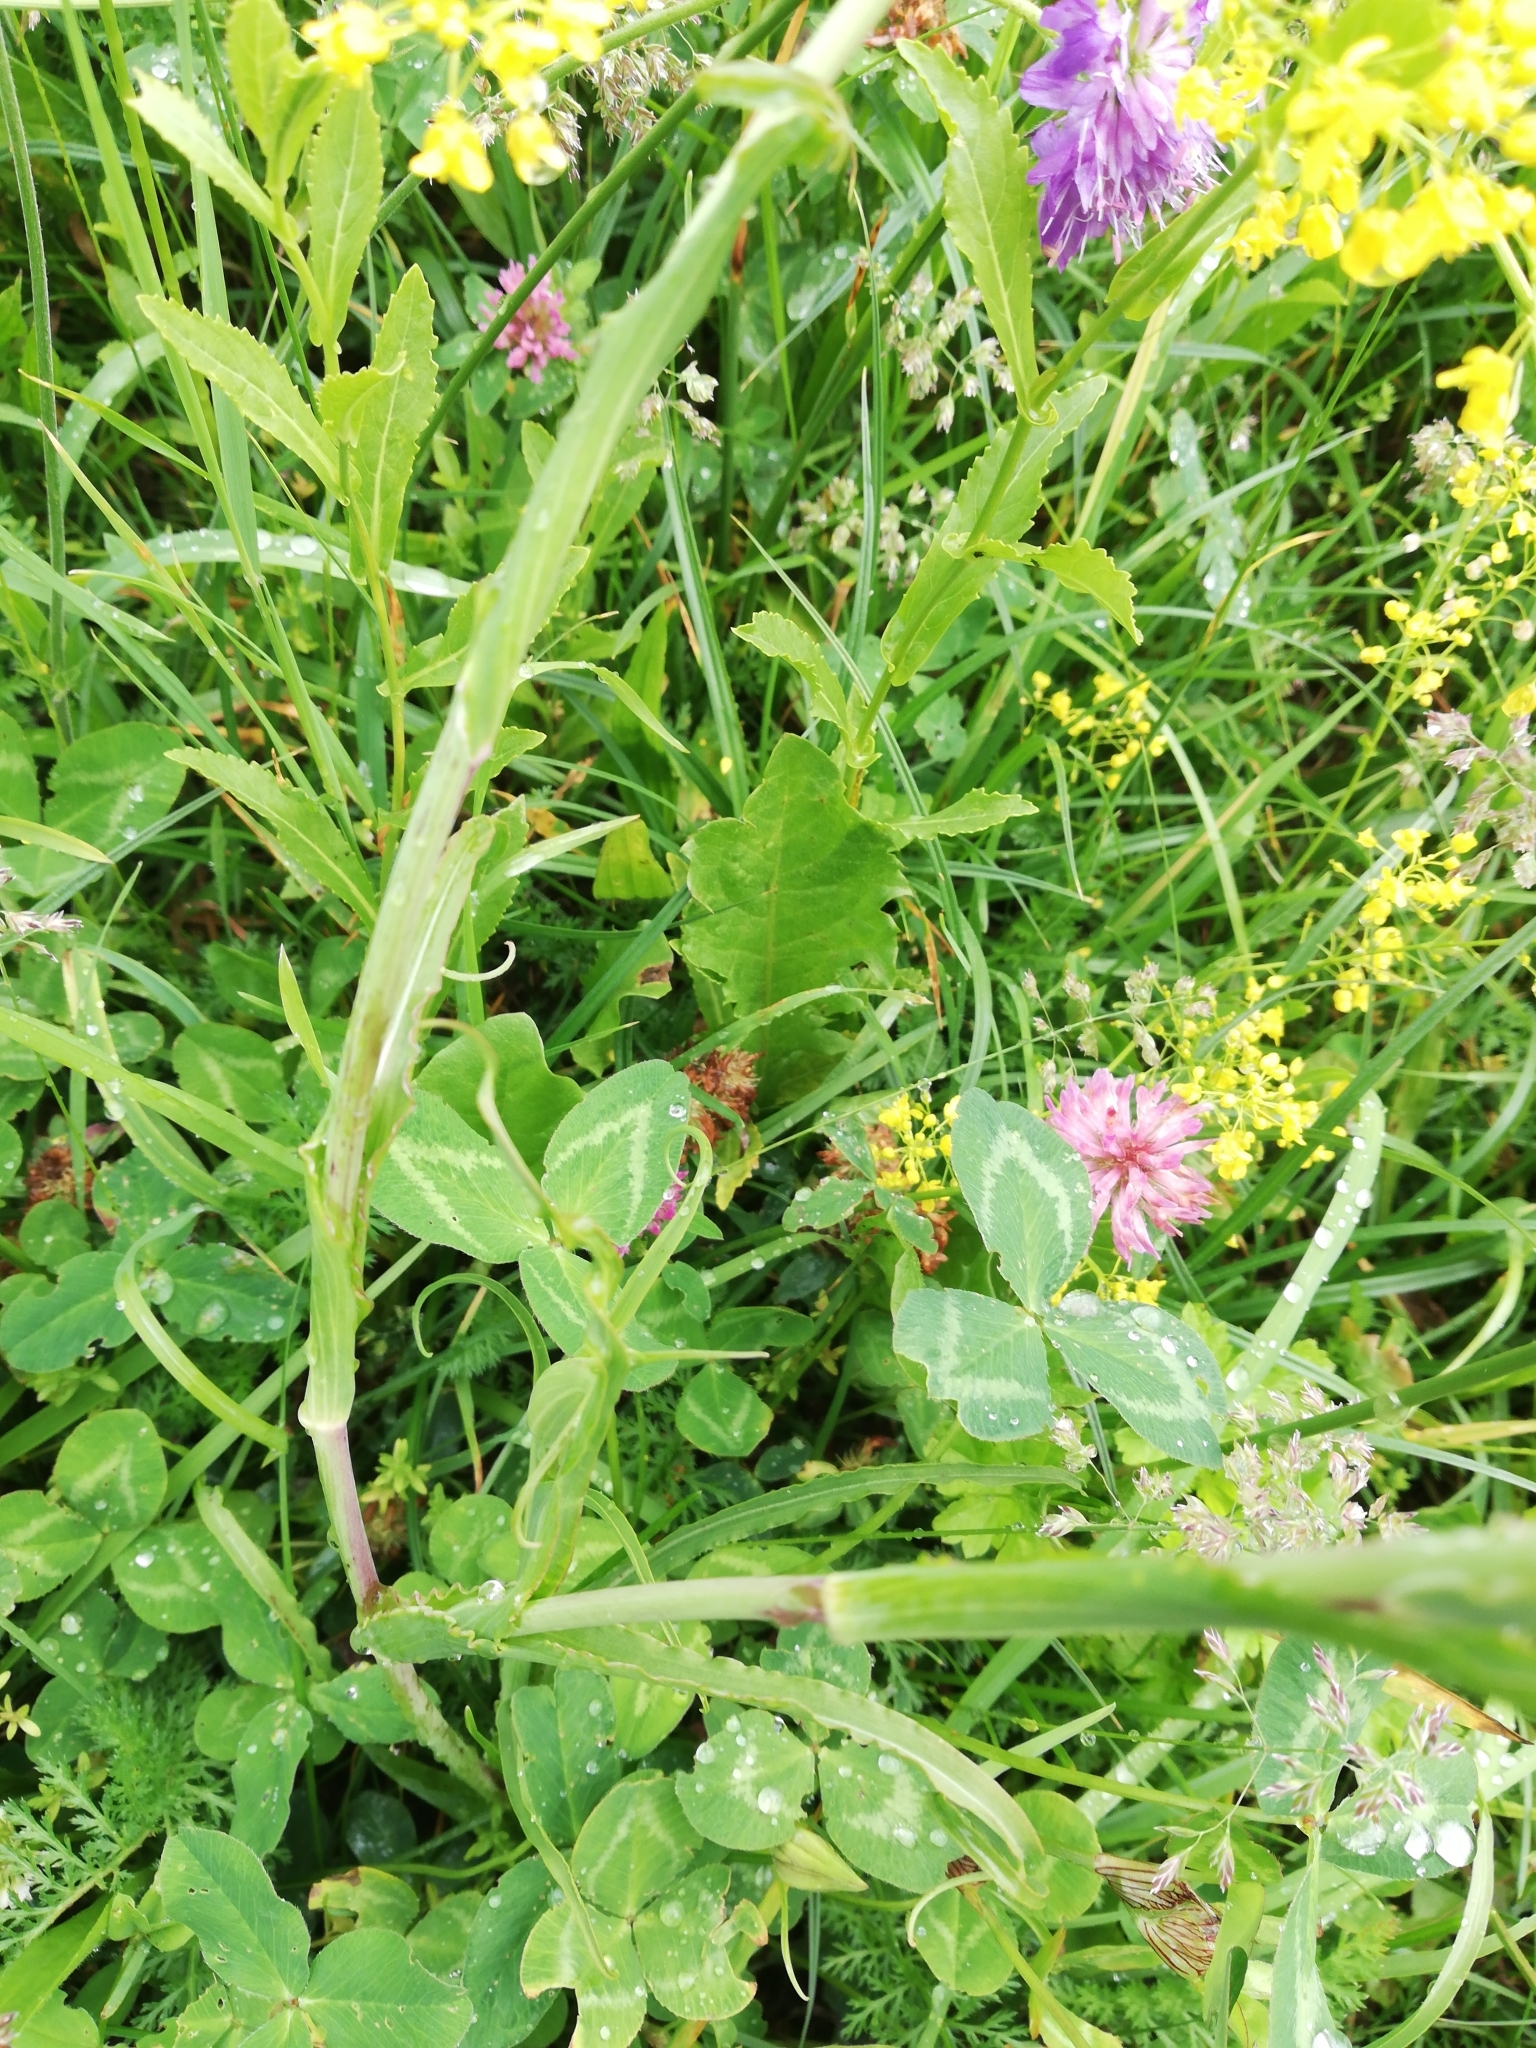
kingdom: Plantae
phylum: Tracheophyta
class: Magnoliopsida
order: Asterales
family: Asteraceae
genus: Tragopogon
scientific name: Tragopogon pratensis
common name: Goat's-beard
